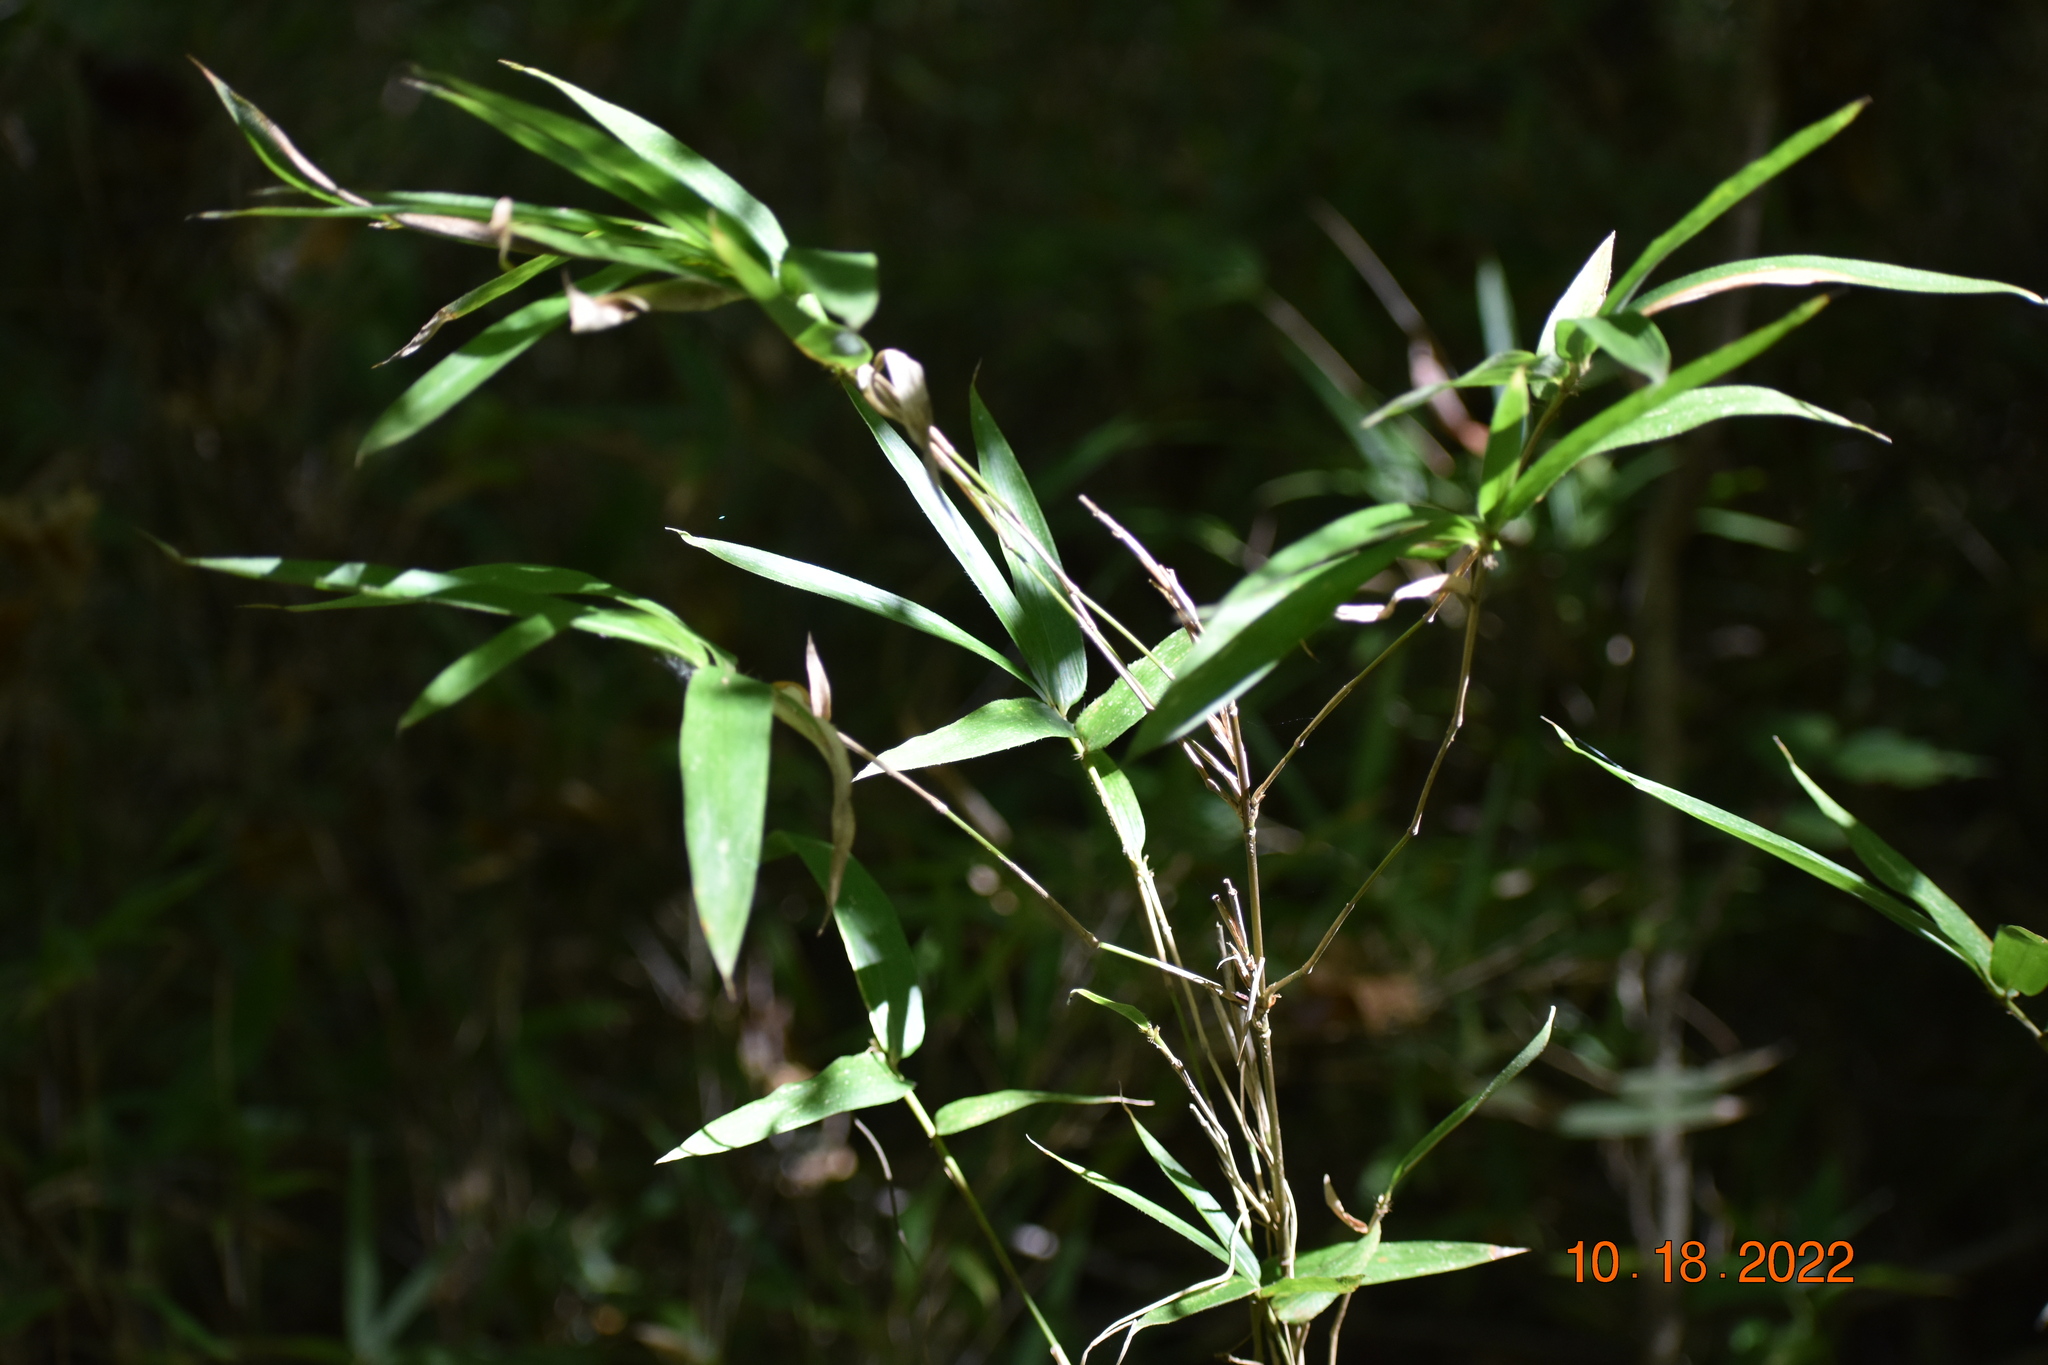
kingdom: Plantae
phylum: Tracheophyta
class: Liliopsida
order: Poales
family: Poaceae
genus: Arundinaria
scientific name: Arundinaria gigantea
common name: Giant cane
